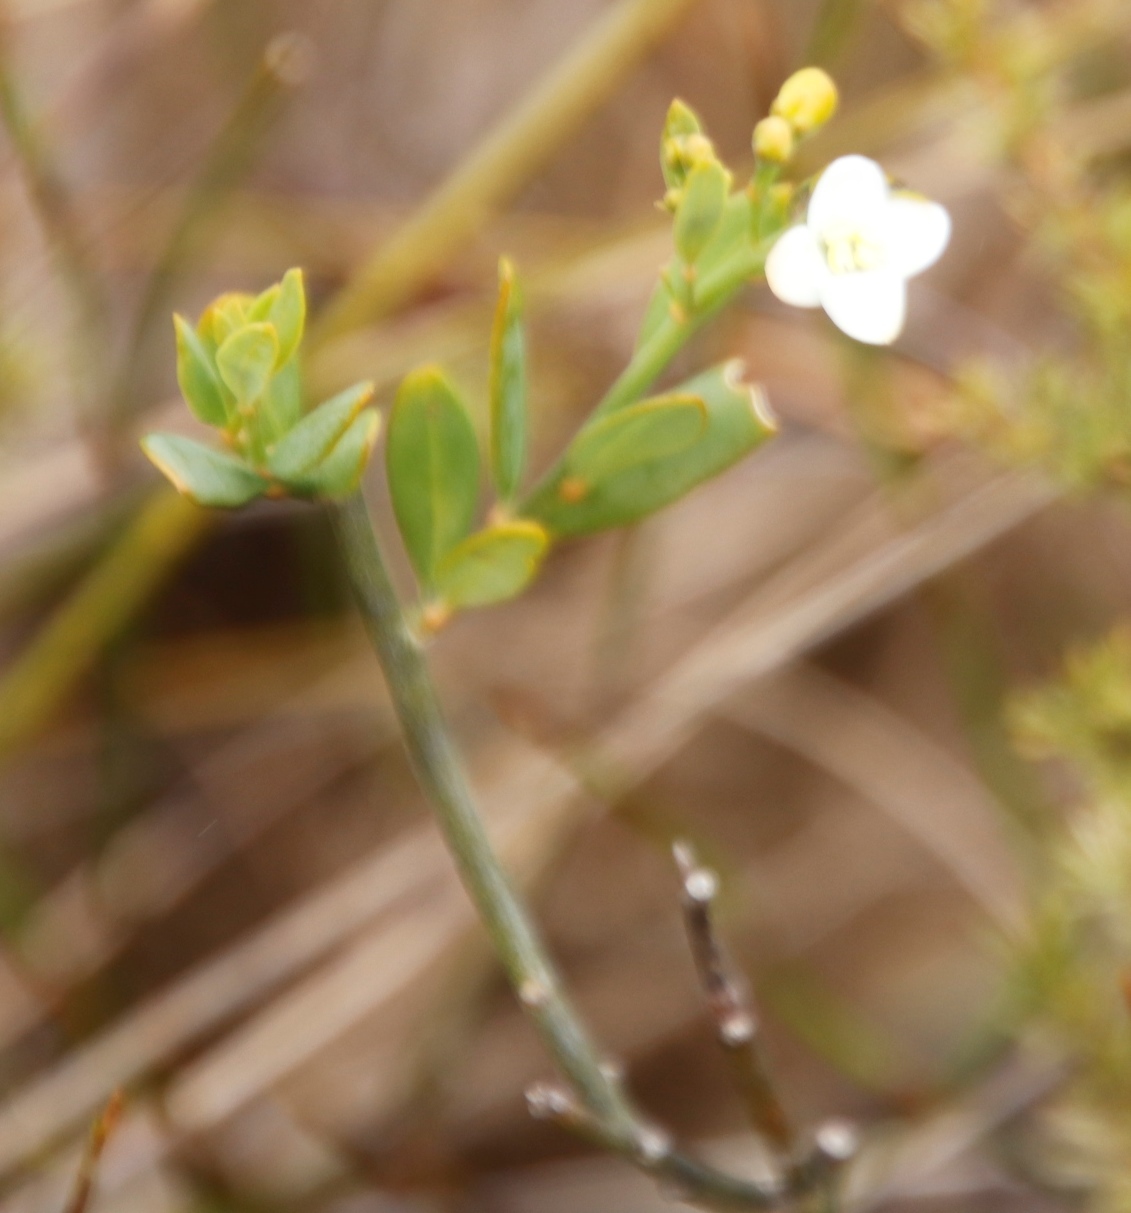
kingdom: Plantae
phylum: Tracheophyta
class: Magnoliopsida
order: Solanales
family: Montiniaceae
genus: Montinia
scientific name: Montinia caryophyllacea
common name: Wild clove-bush
